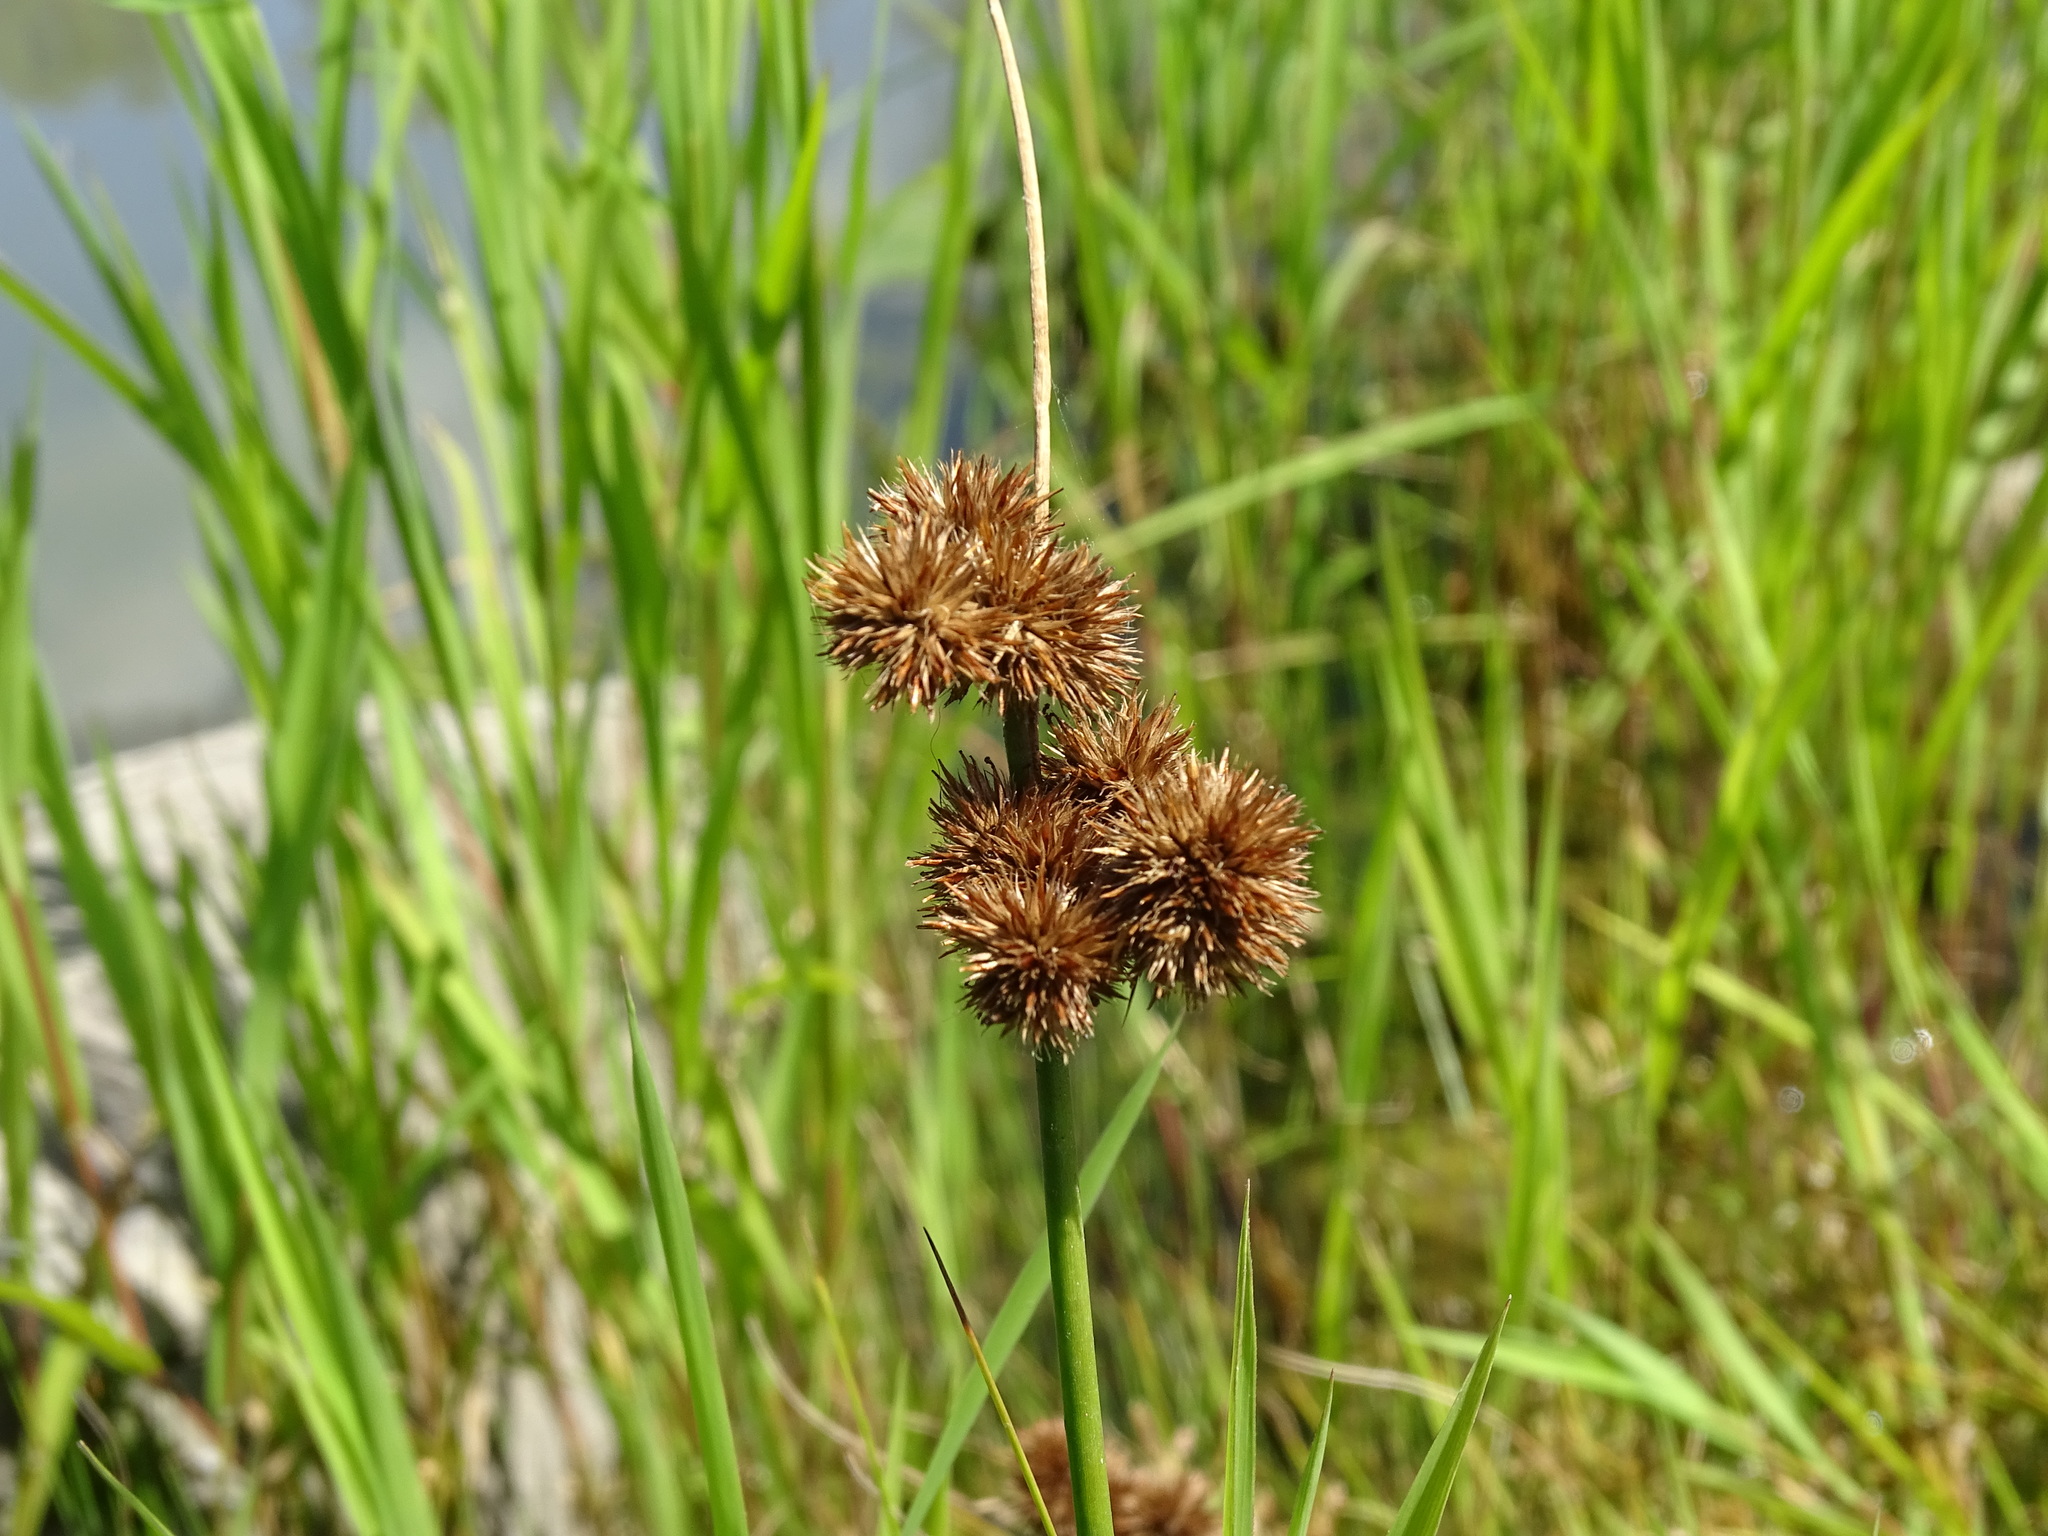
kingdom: Plantae
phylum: Tracheophyta
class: Liliopsida
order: Poales
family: Juncaceae
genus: Juncus
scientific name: Juncus torreyi
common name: Torrey's rush
